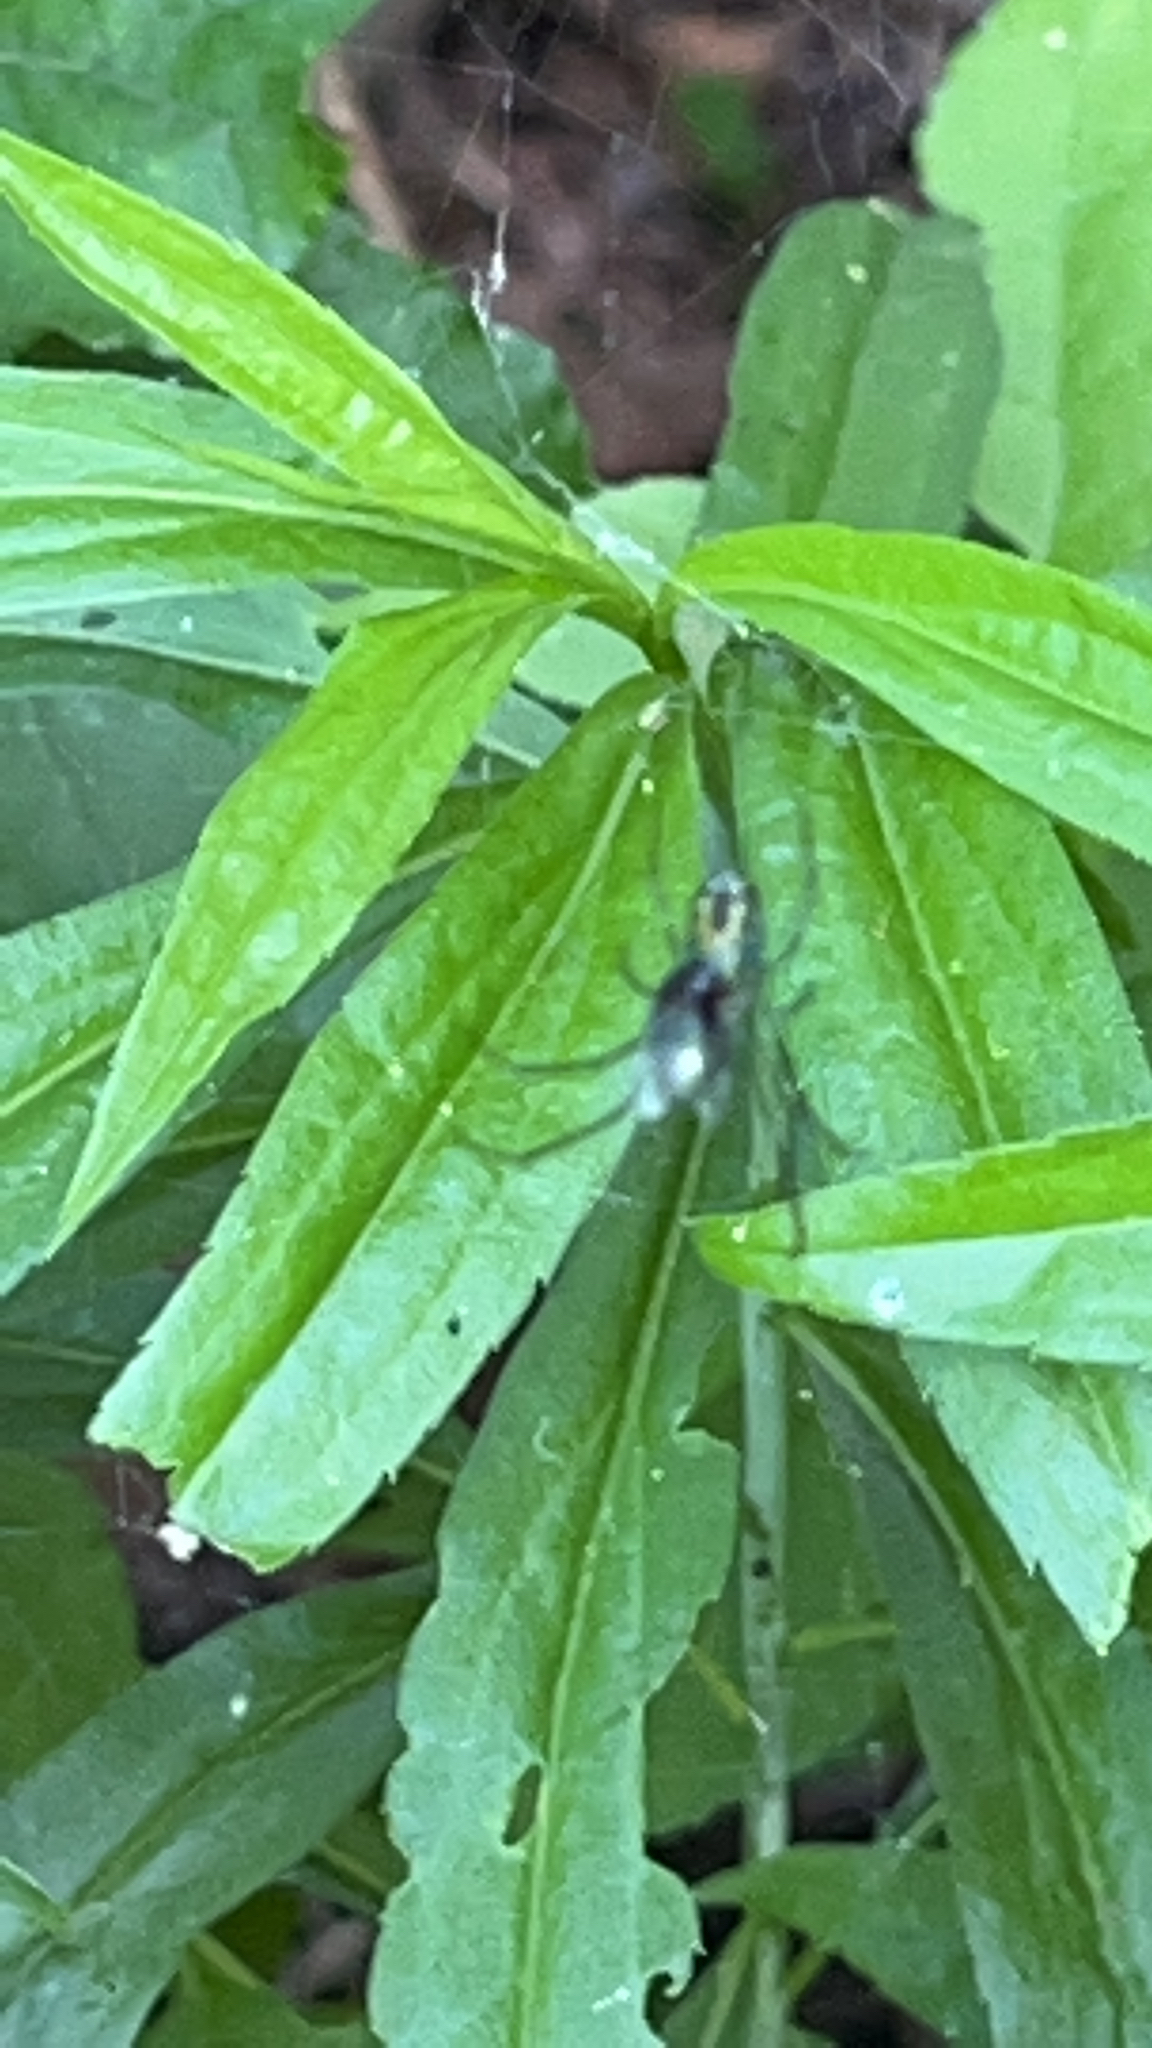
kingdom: Animalia
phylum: Arthropoda
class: Arachnida
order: Araneae
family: Tetragnathidae
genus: Leucauge
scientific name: Leucauge venusta
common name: Longjawed orb weavers
